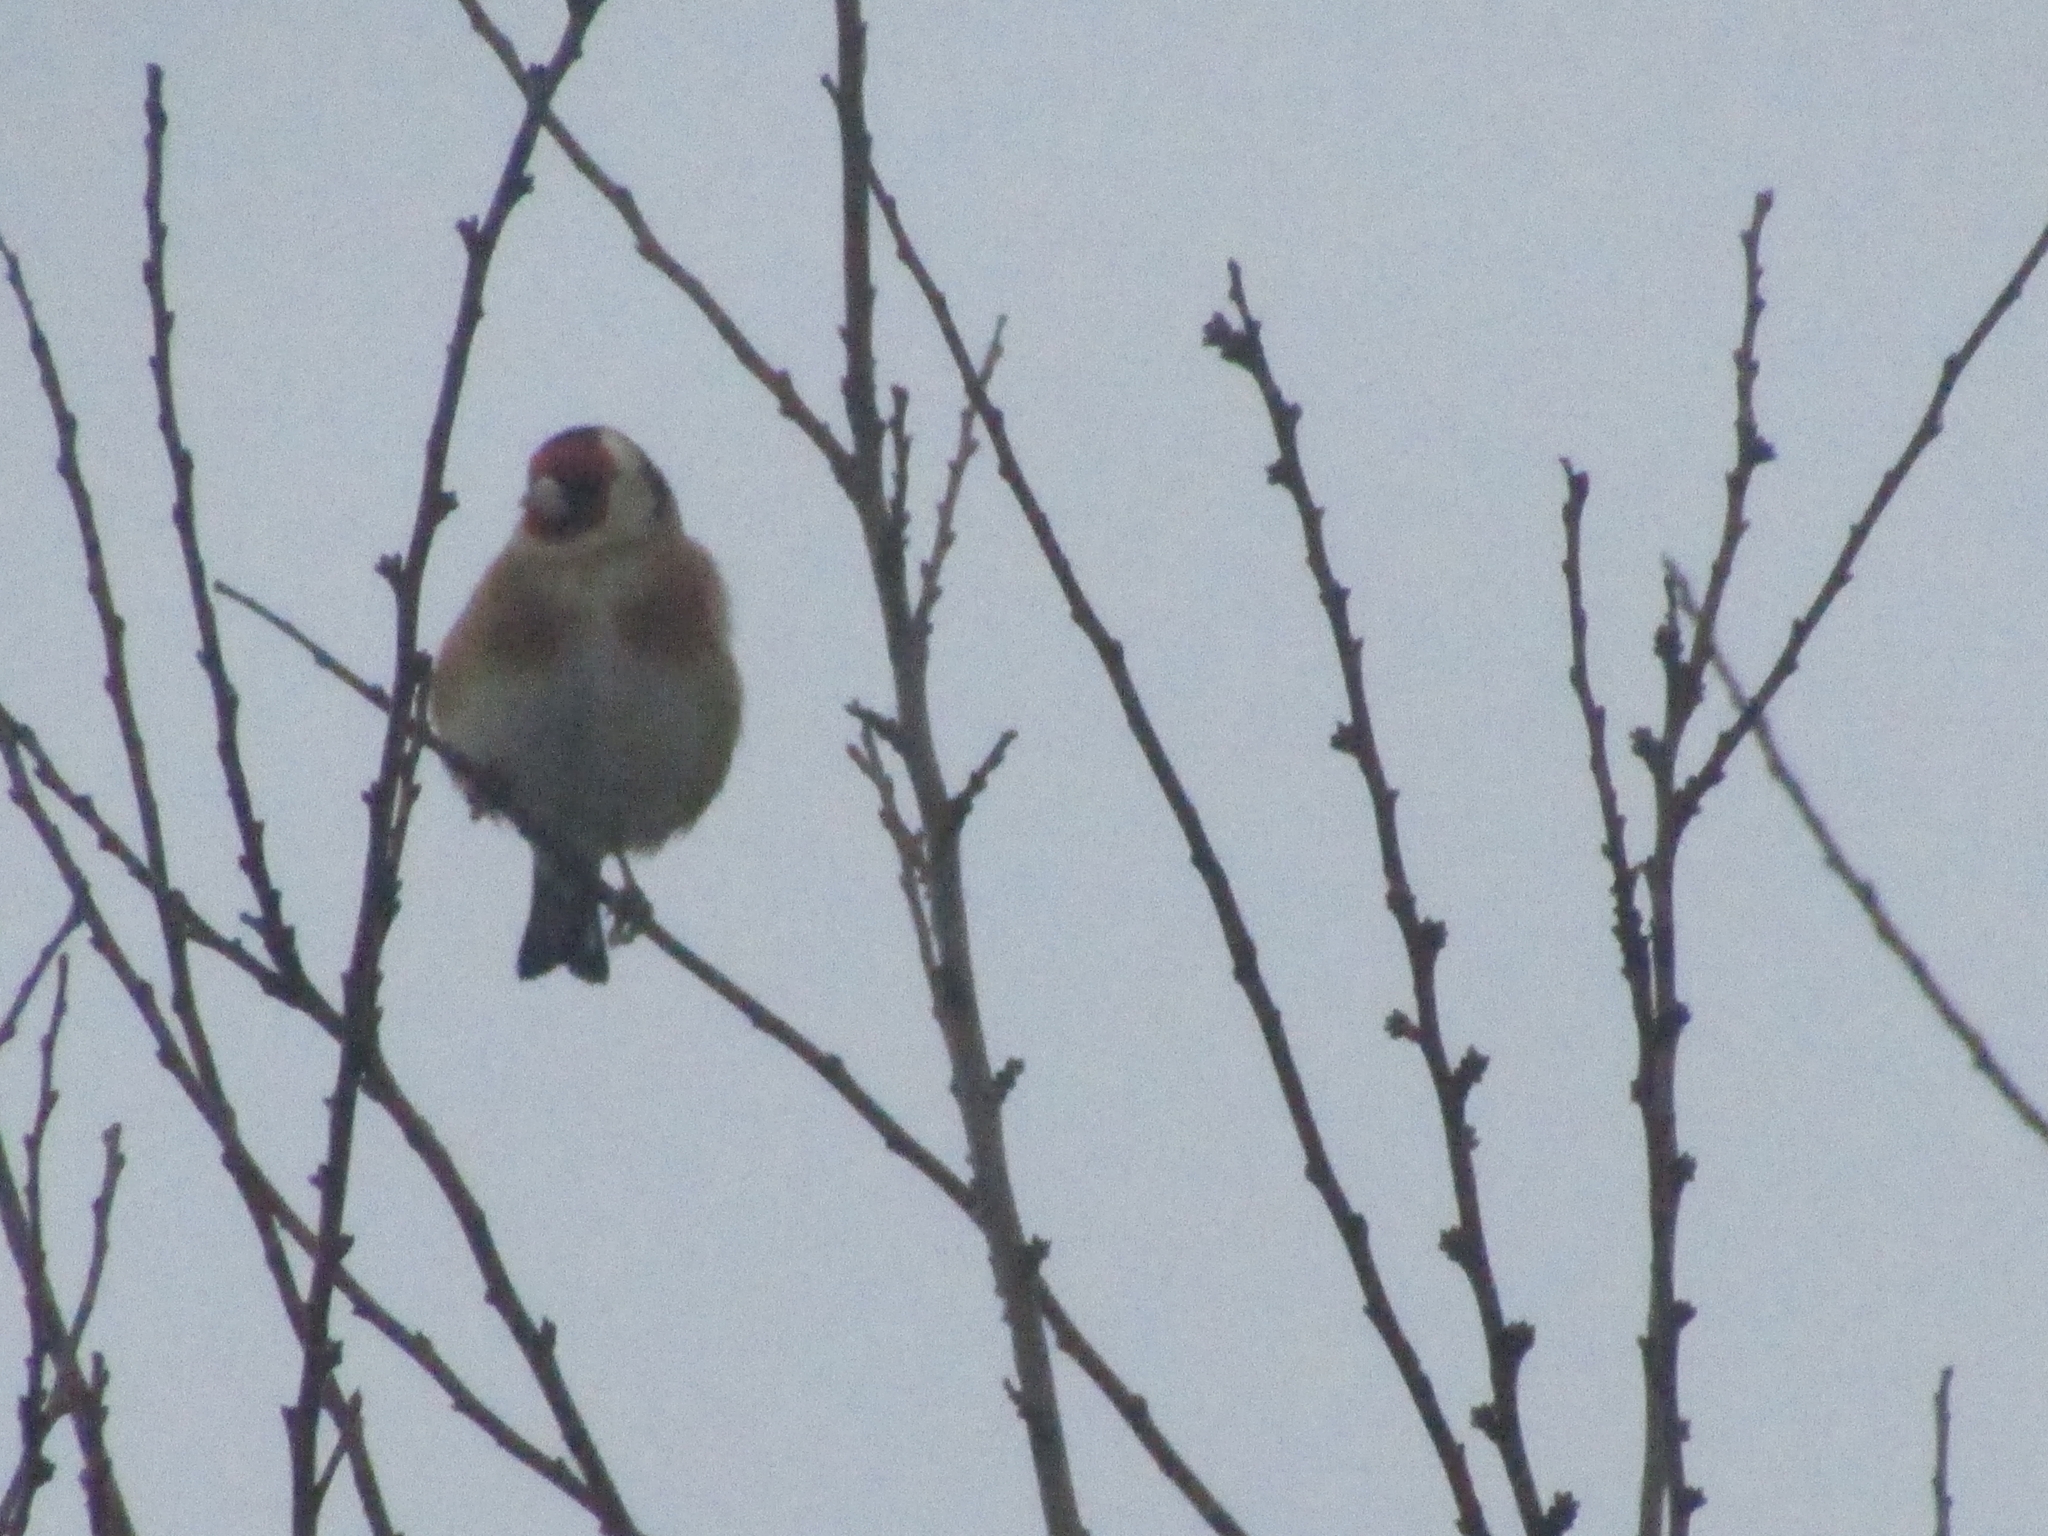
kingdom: Animalia
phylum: Chordata
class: Aves
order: Passeriformes
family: Fringillidae
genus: Carduelis
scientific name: Carduelis carduelis
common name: European goldfinch
